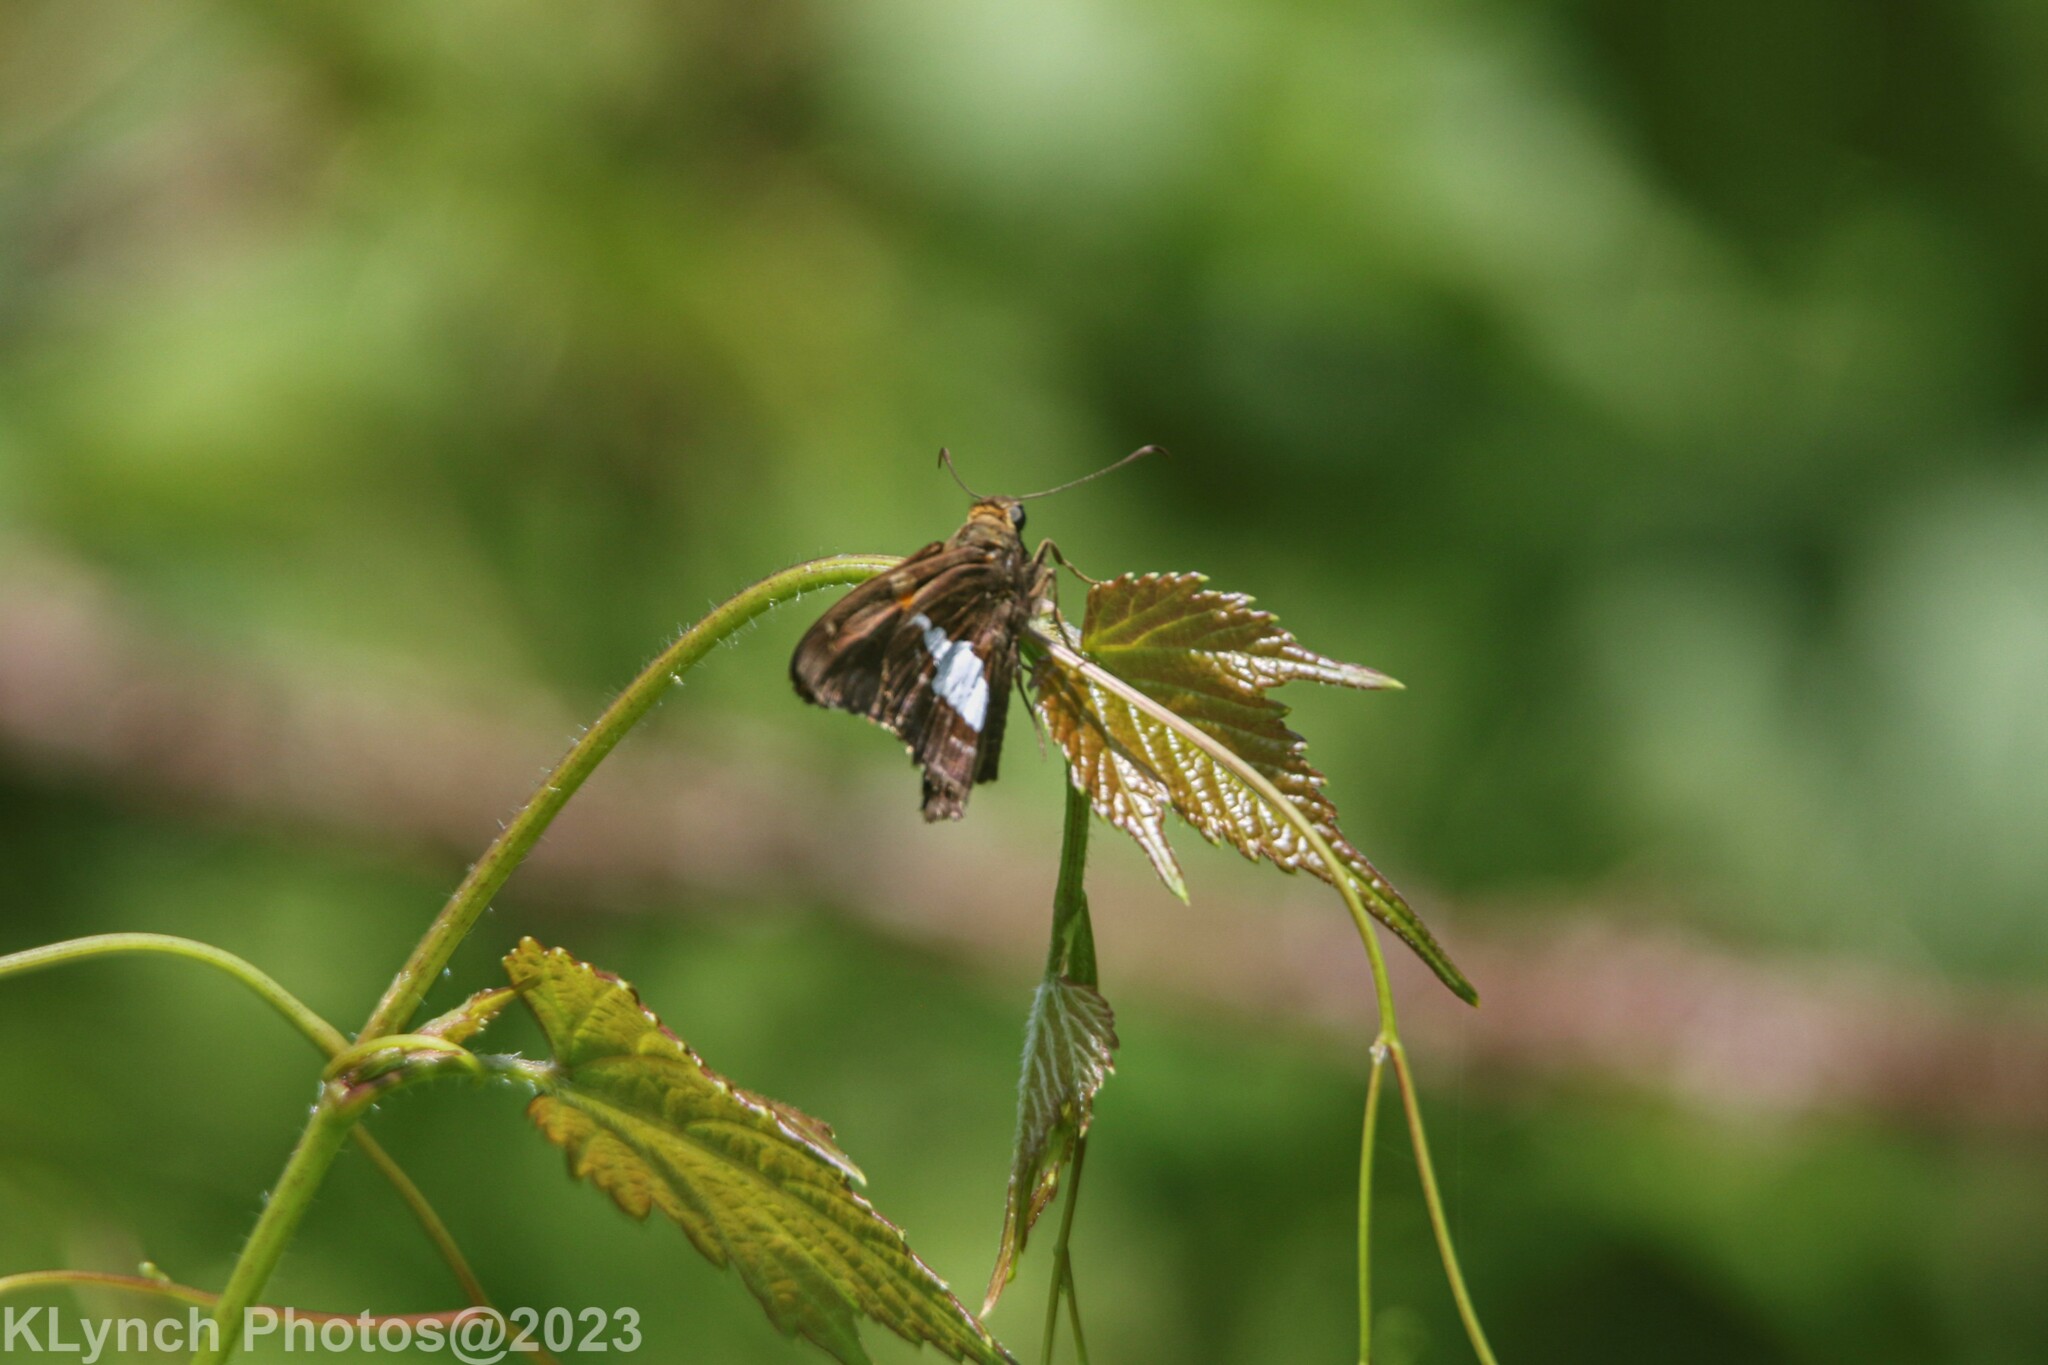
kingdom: Animalia
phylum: Arthropoda
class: Insecta
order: Lepidoptera
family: Hesperiidae
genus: Epargyreus
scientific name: Epargyreus clarus
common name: Silver-spotted skipper
